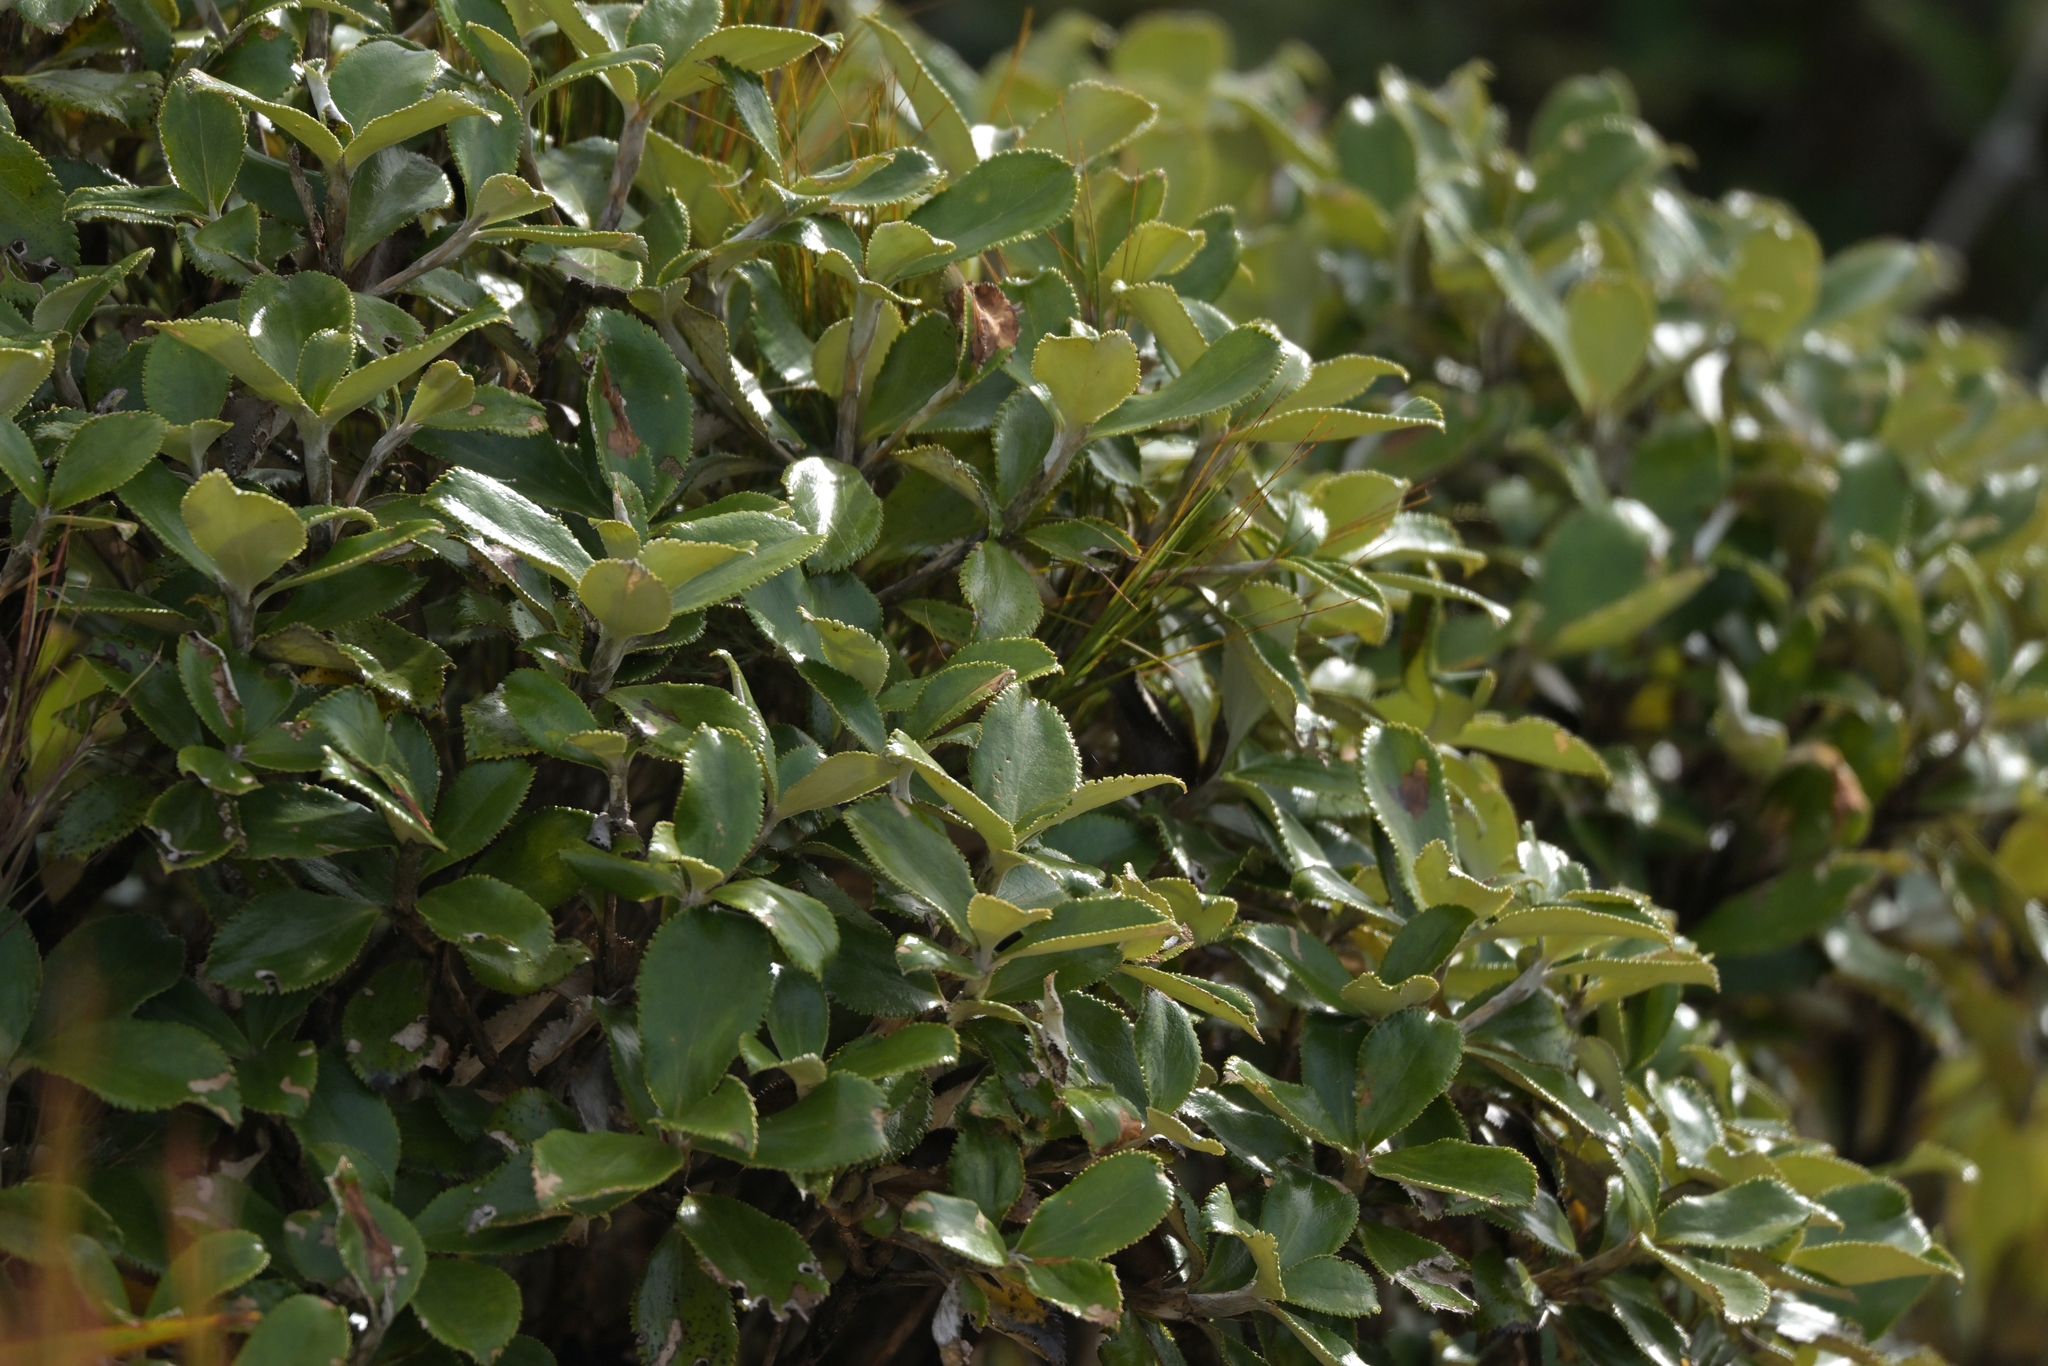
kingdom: Plantae
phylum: Tracheophyta
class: Magnoliopsida
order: Asterales
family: Asteraceae
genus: Macrolearia
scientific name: Macrolearia colensoi
